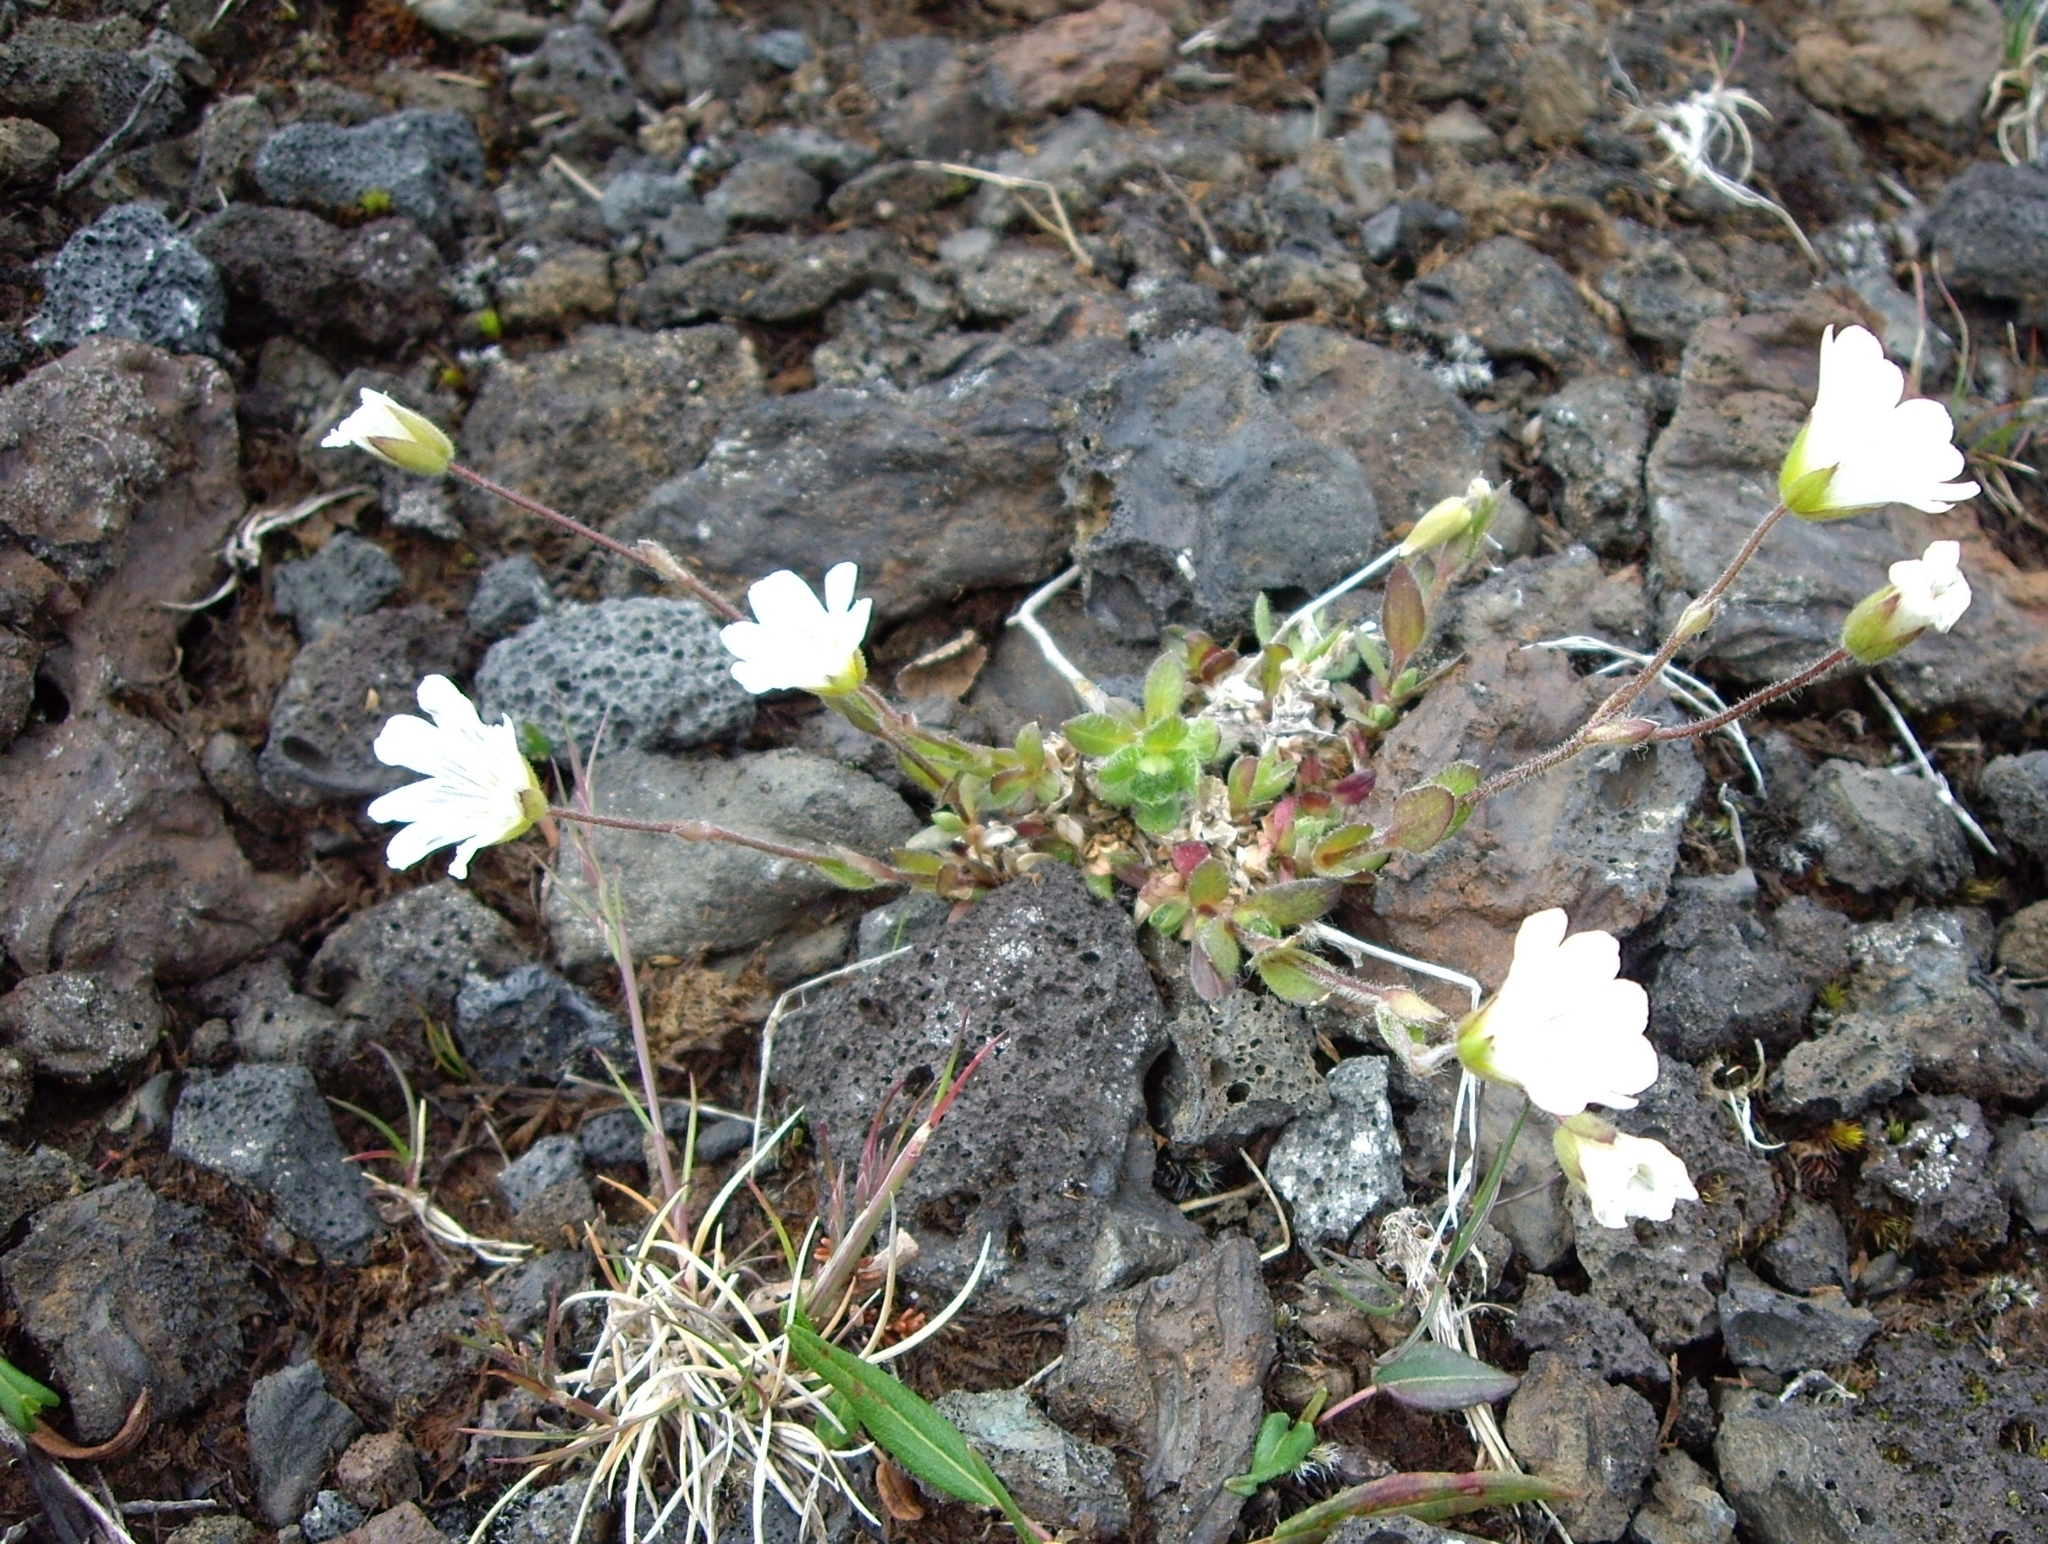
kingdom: Plantae
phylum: Tracheophyta
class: Magnoliopsida
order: Caryophyllales
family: Caryophyllaceae
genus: Cerastium
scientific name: Cerastium alpinum
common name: Alpine mouse-ear
